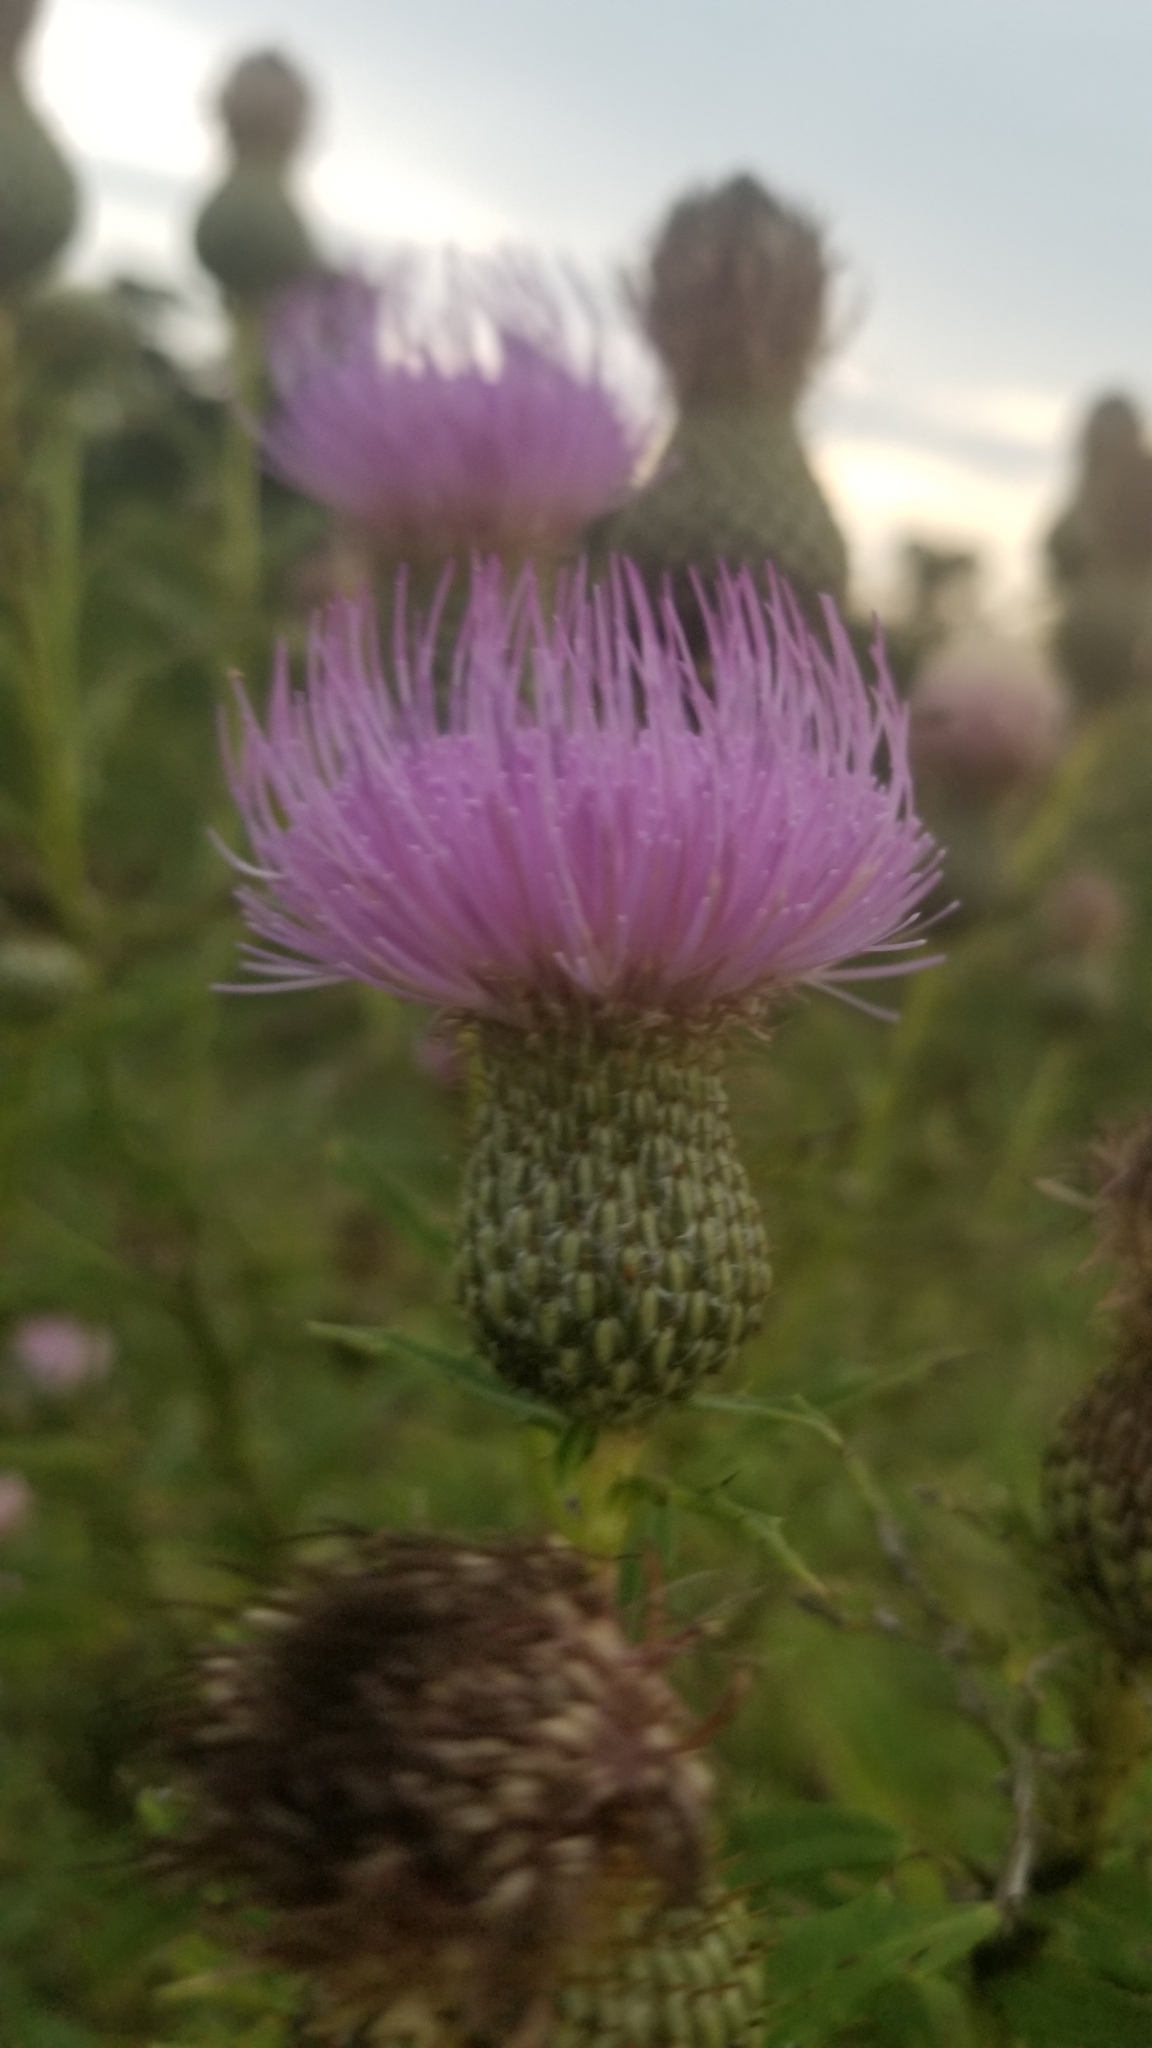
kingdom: Plantae
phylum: Tracheophyta
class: Magnoliopsida
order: Asterales
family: Asteraceae
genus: Cirsium
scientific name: Cirsium altissimum
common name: Roadside thistle
